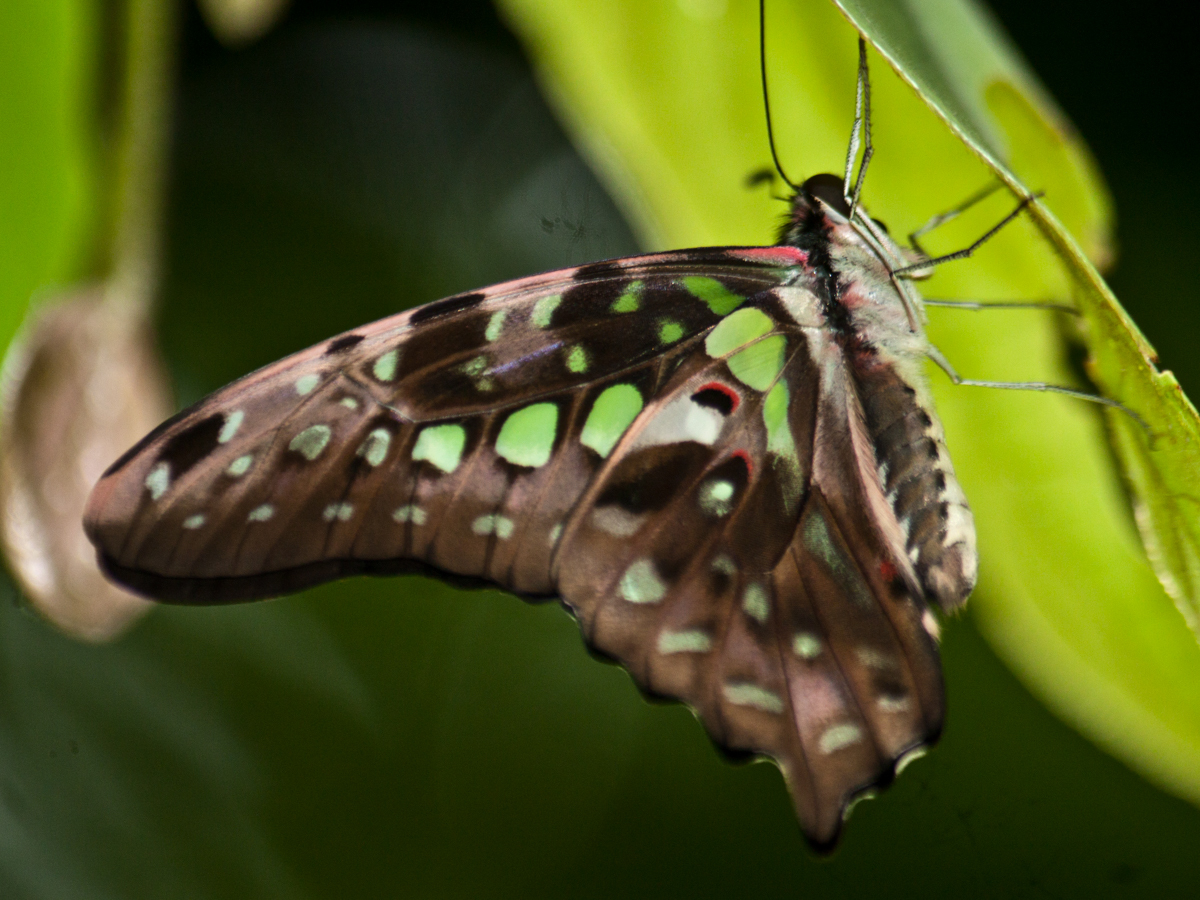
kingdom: Animalia
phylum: Arthropoda
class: Insecta
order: Lepidoptera
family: Papilionidae
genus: Graphium
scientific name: Graphium agamemnon
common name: Tailed jay
